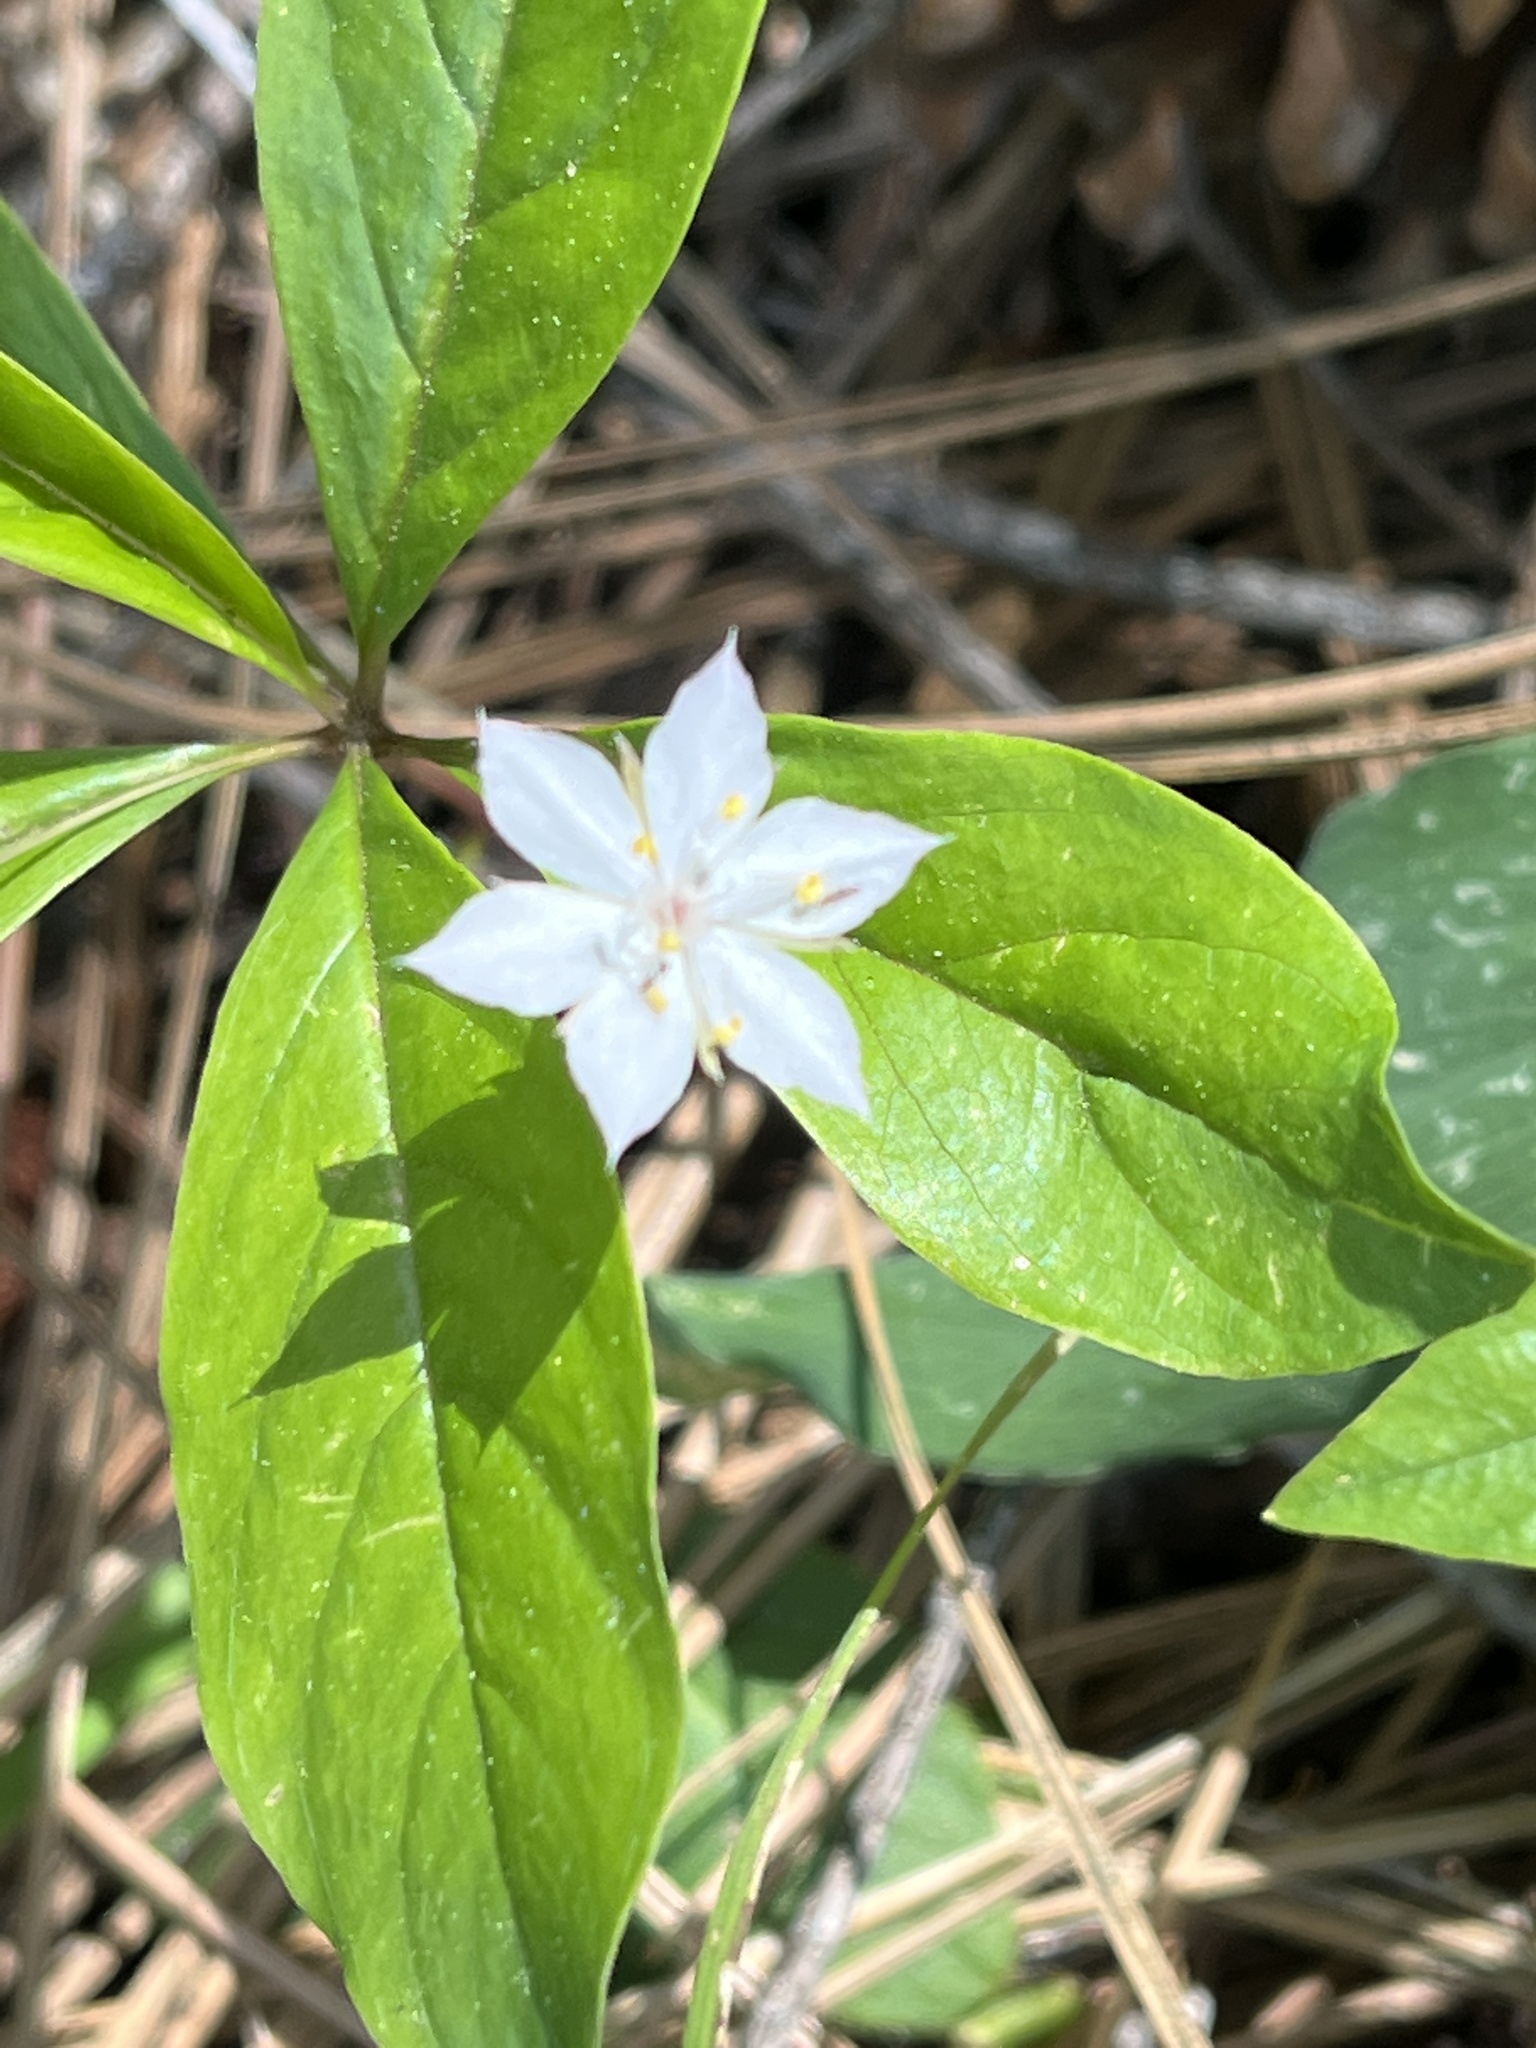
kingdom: Plantae
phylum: Tracheophyta
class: Magnoliopsida
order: Ericales
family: Primulaceae
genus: Lysimachia
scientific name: Lysimachia latifolia
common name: Pacific starflower
